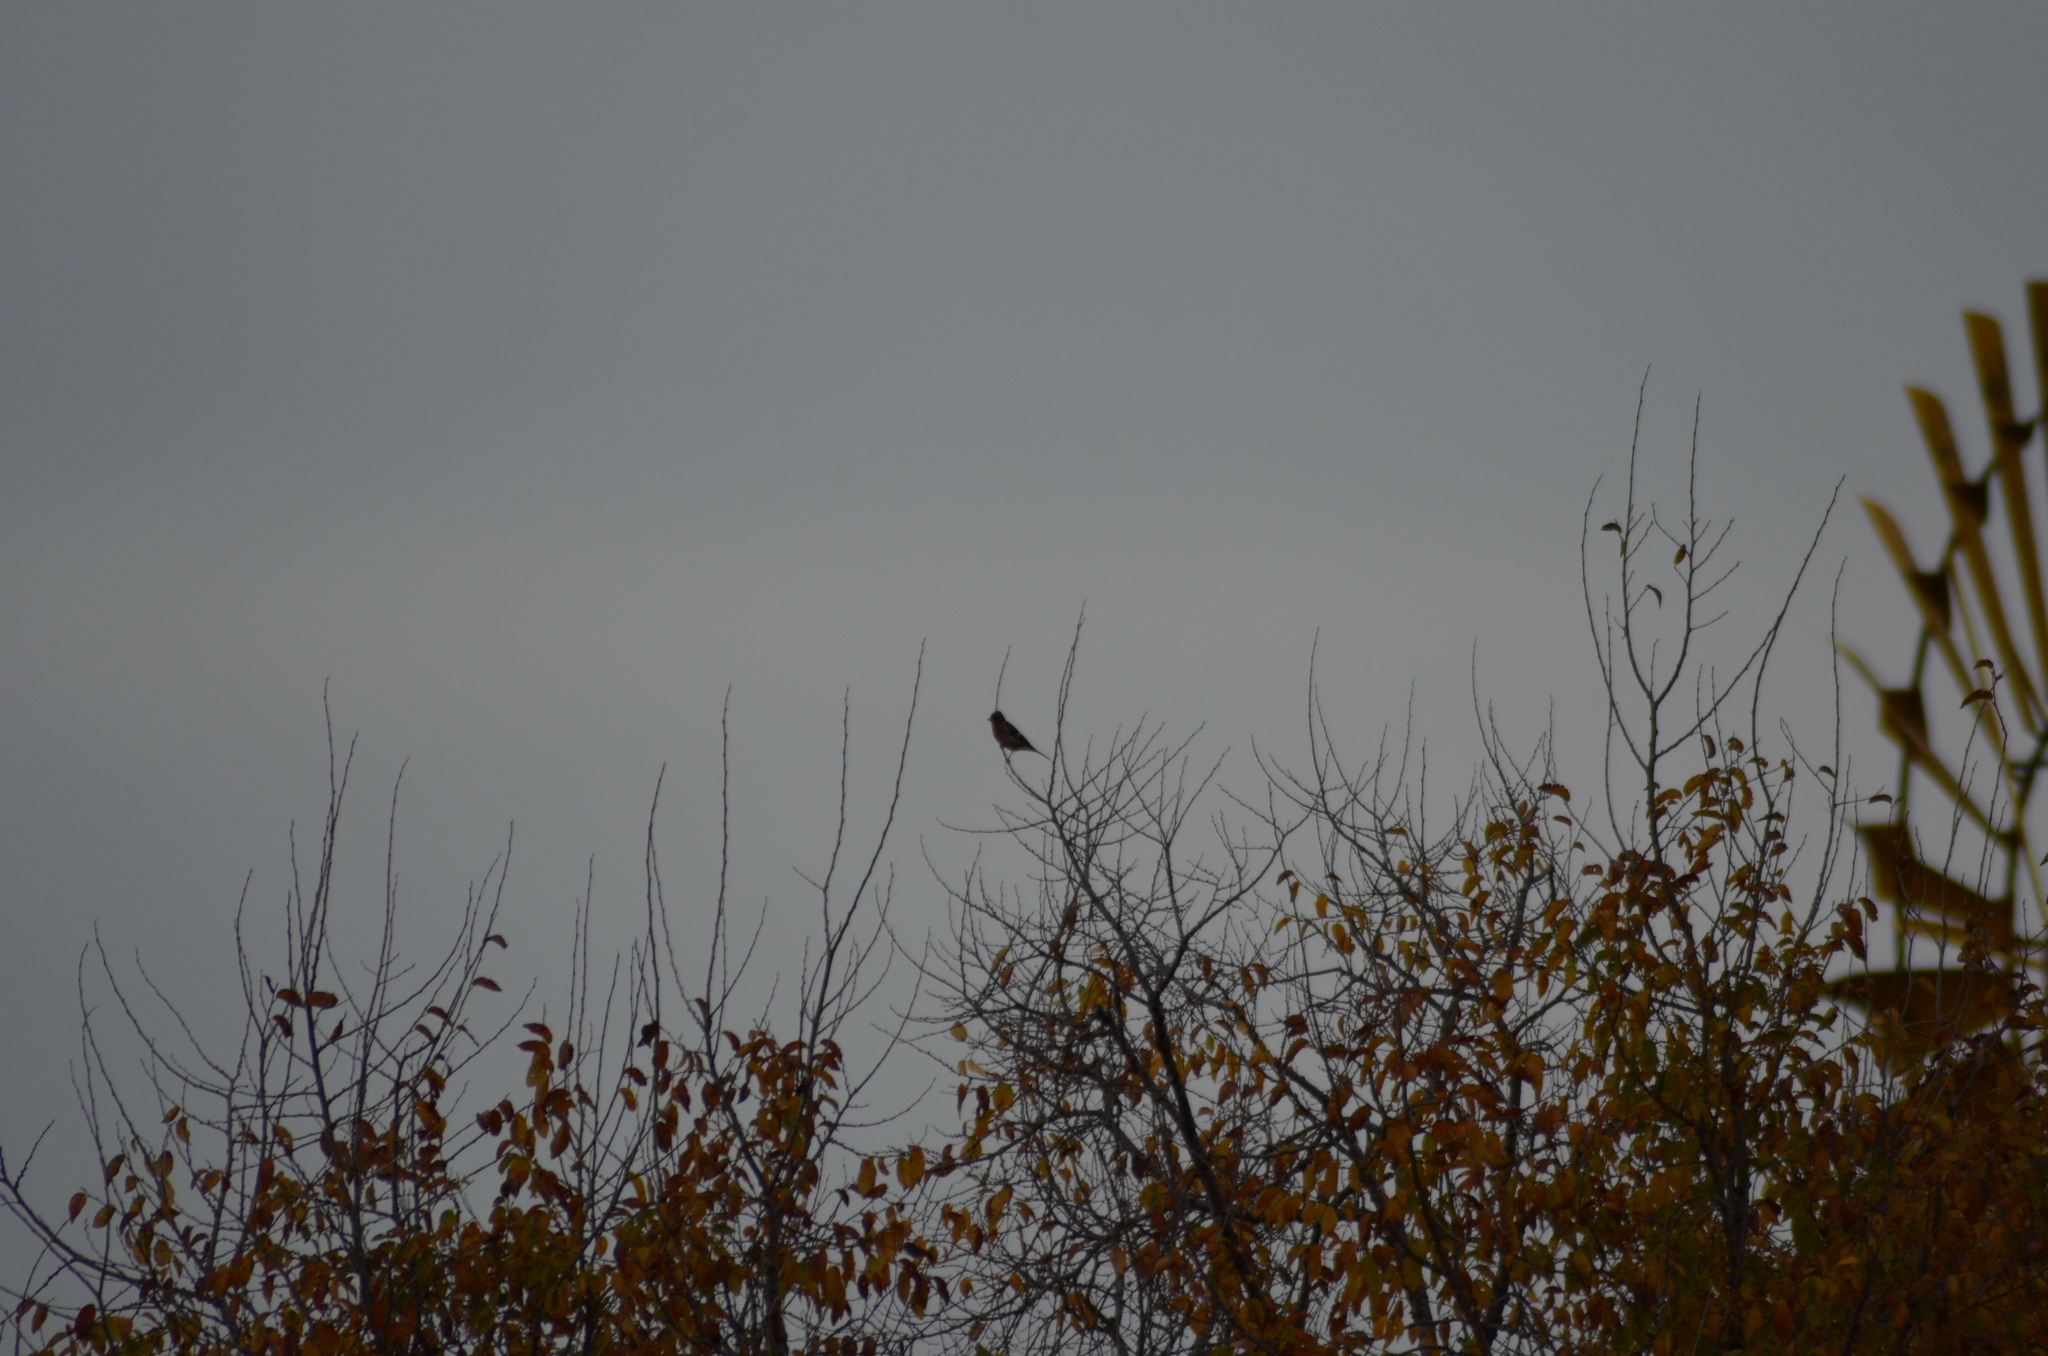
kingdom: Animalia
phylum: Chordata
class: Aves
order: Passeriformes
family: Fringillidae
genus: Fringilla
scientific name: Fringilla coelebs
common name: Common chaffinch
